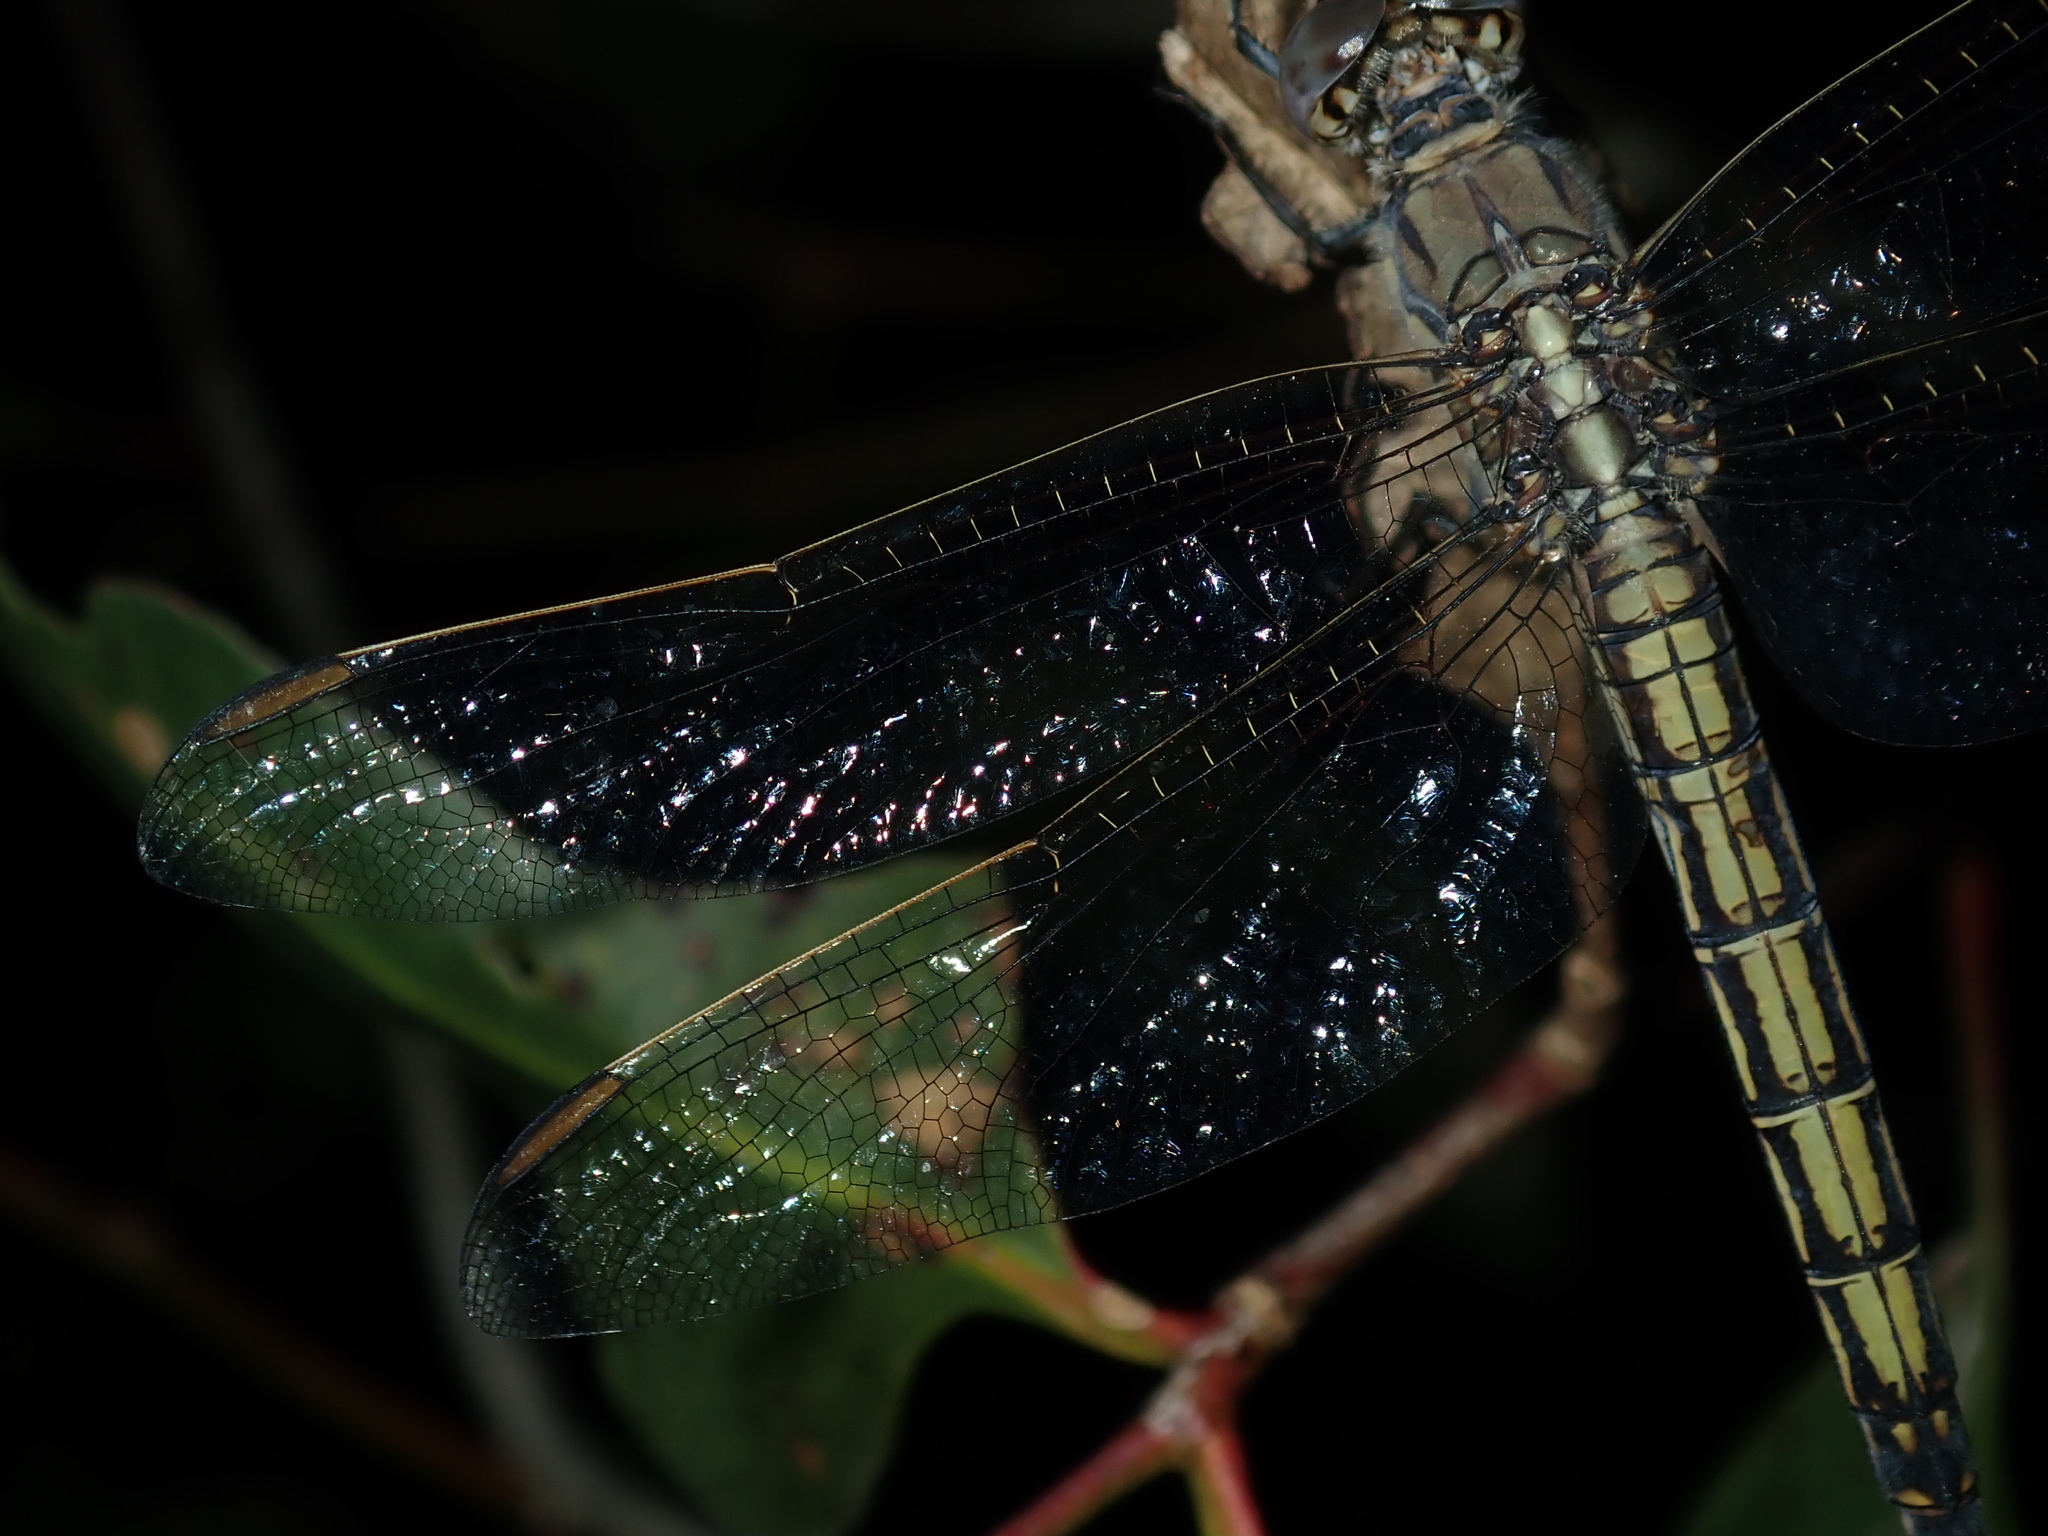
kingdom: Animalia
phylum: Arthropoda
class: Insecta
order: Odonata
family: Libellulidae
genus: Orthetrum
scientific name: Orthetrum caledonicum
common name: Blue skimmer
